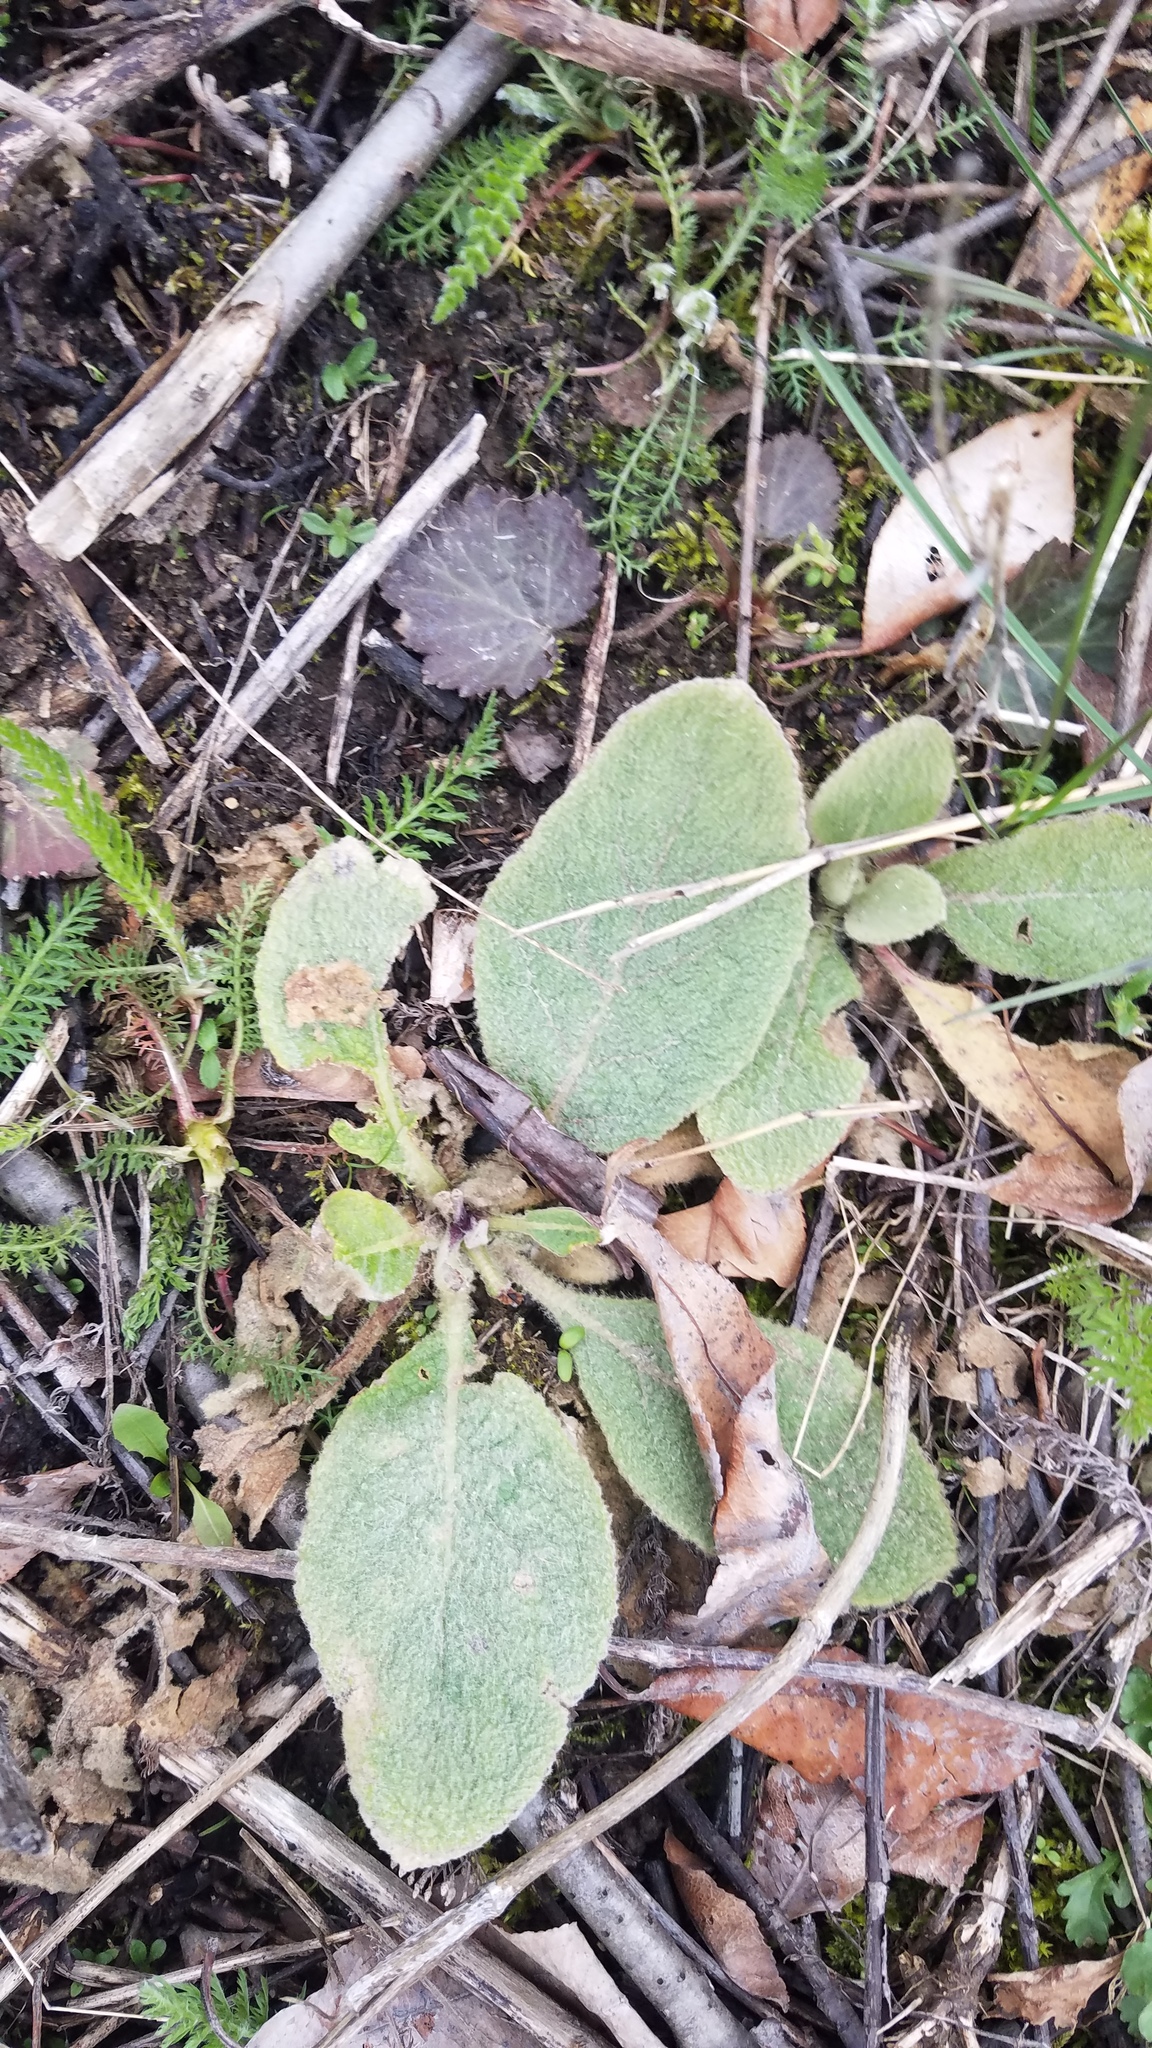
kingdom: Plantae
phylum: Tracheophyta
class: Magnoliopsida
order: Lamiales
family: Scrophulariaceae
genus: Verbascum
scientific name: Verbascum thapsus
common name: Common mullein
